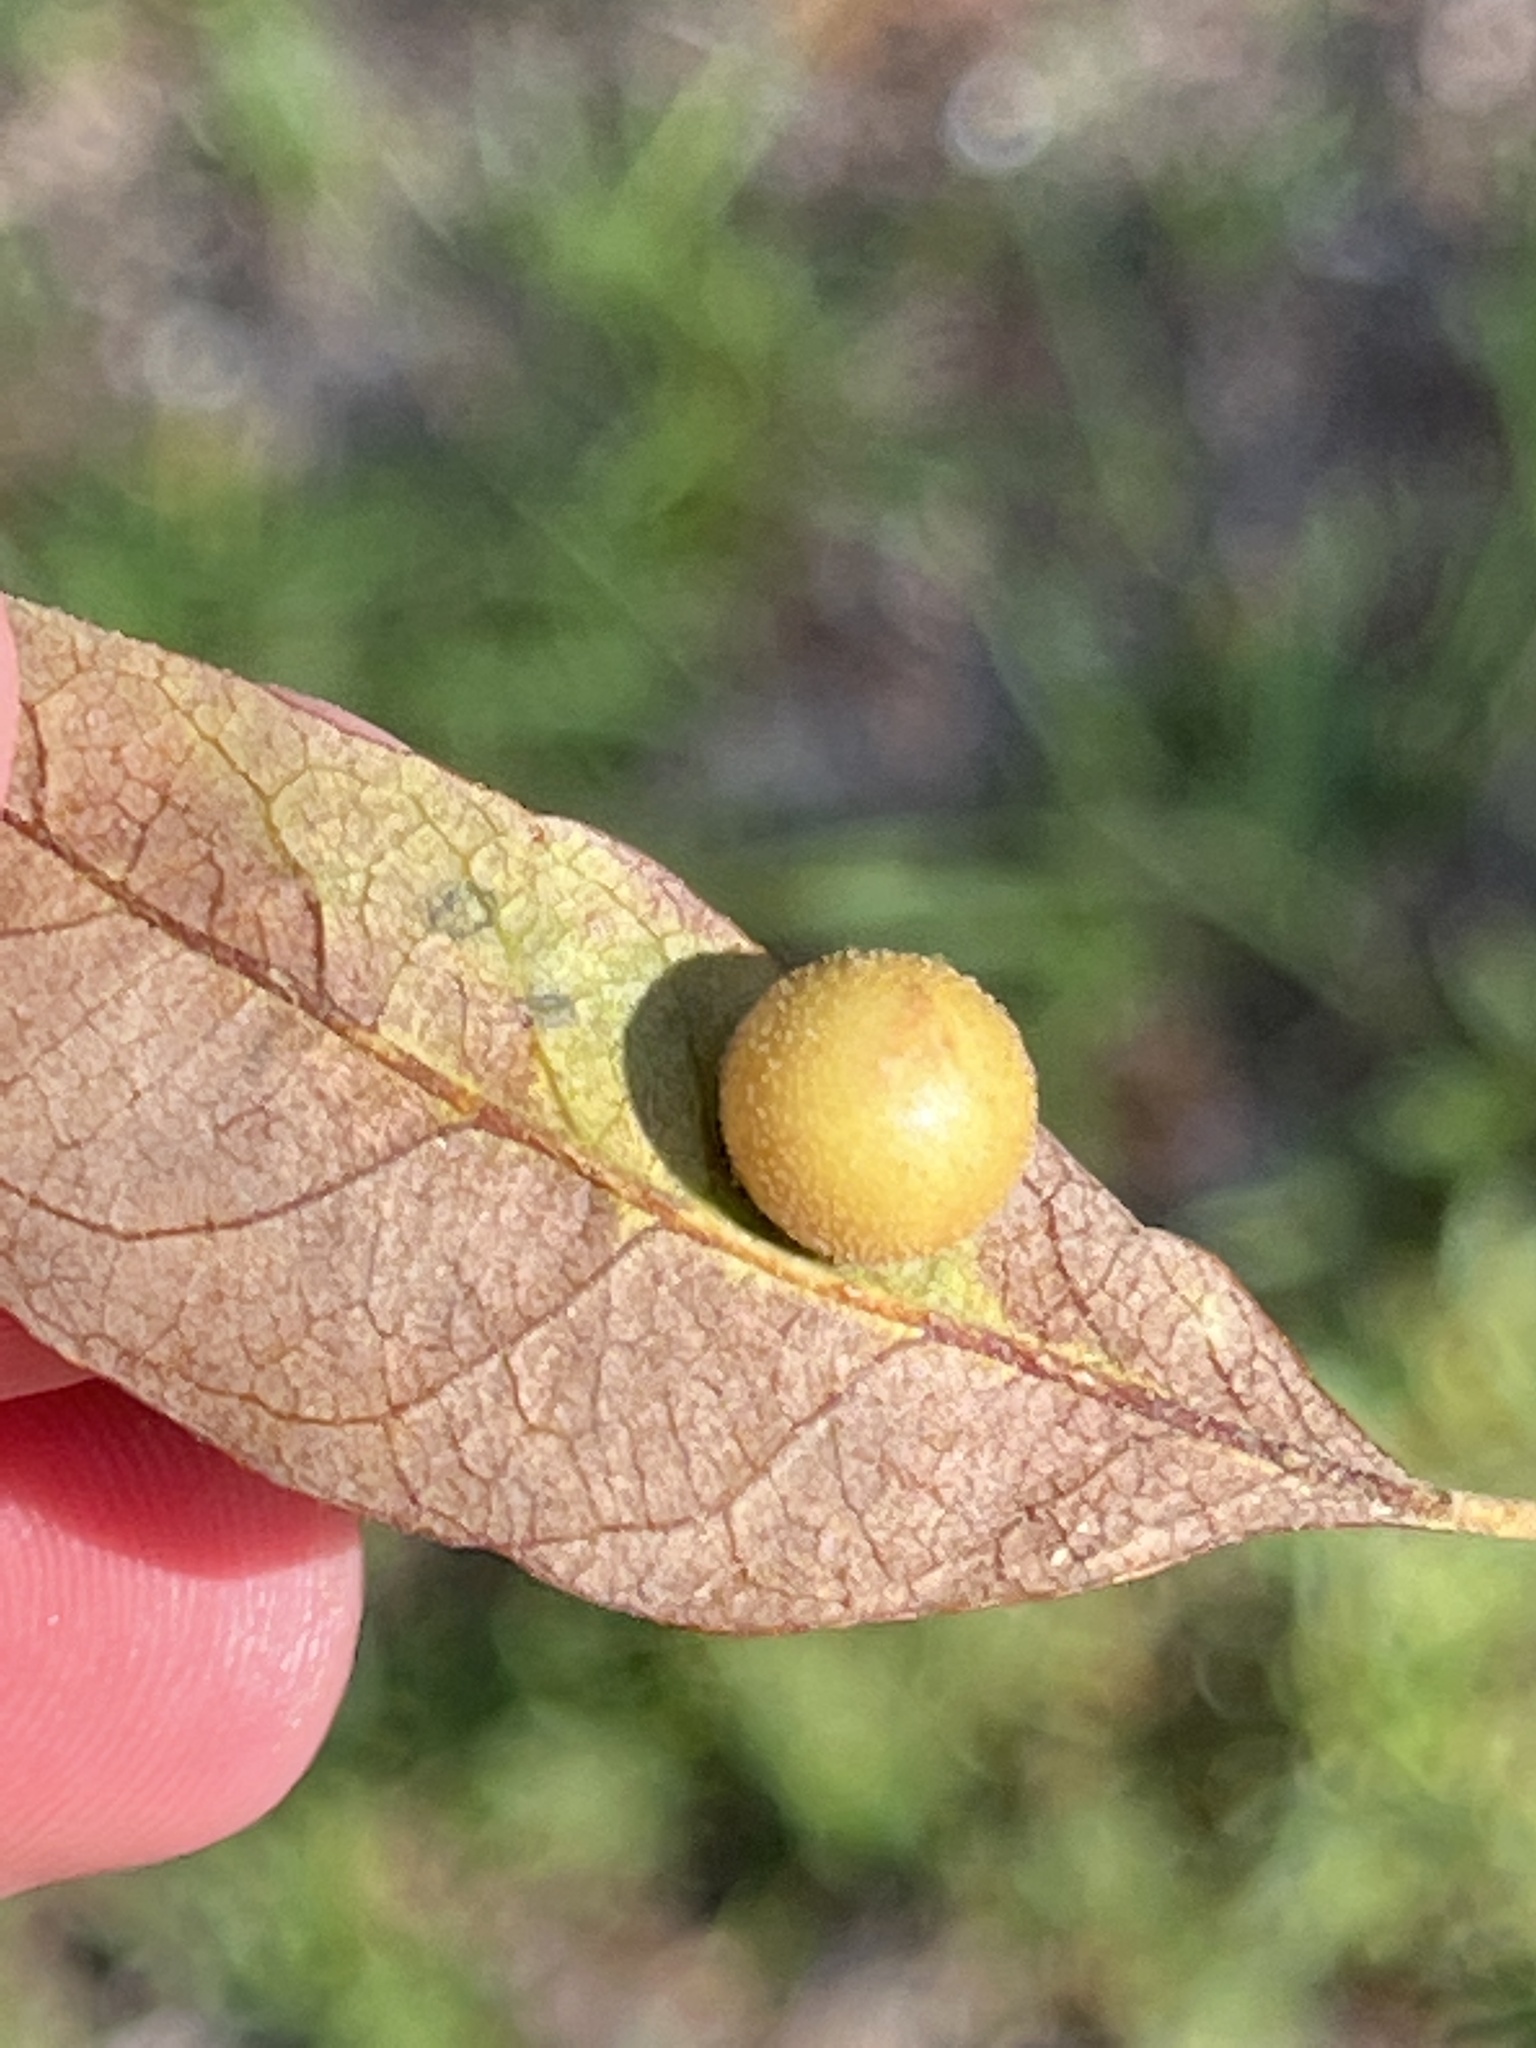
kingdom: Animalia
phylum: Arthropoda
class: Insecta
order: Hymenoptera
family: Cynipidae
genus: Belonocnema
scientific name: Belonocnema treatae
